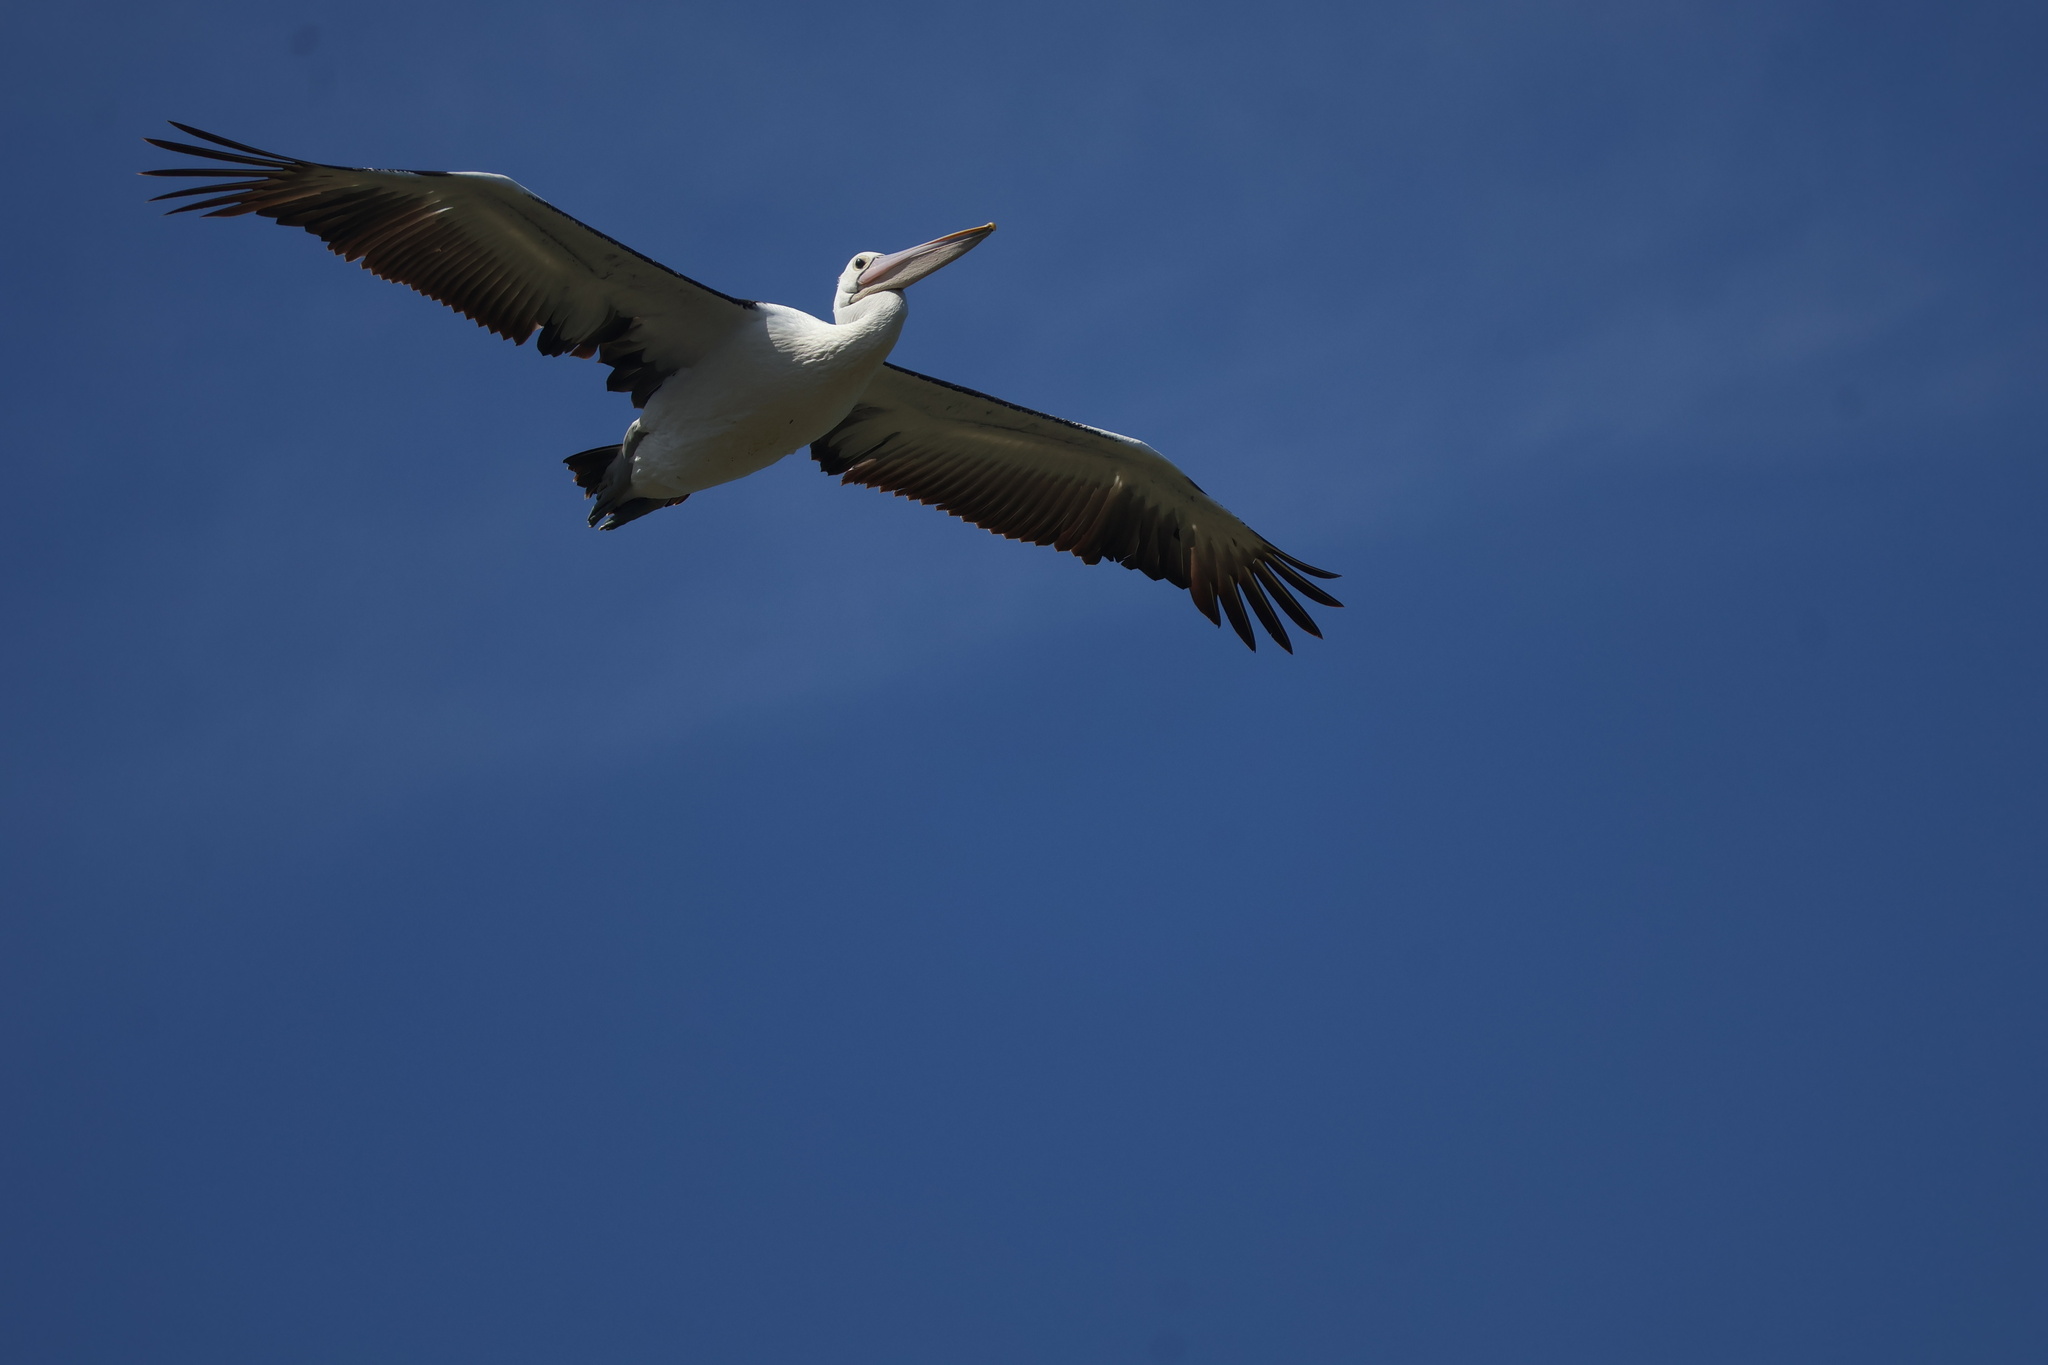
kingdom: Animalia
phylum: Chordata
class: Aves
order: Pelecaniformes
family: Pelecanidae
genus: Pelecanus
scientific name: Pelecanus conspicillatus
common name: Australian pelican
